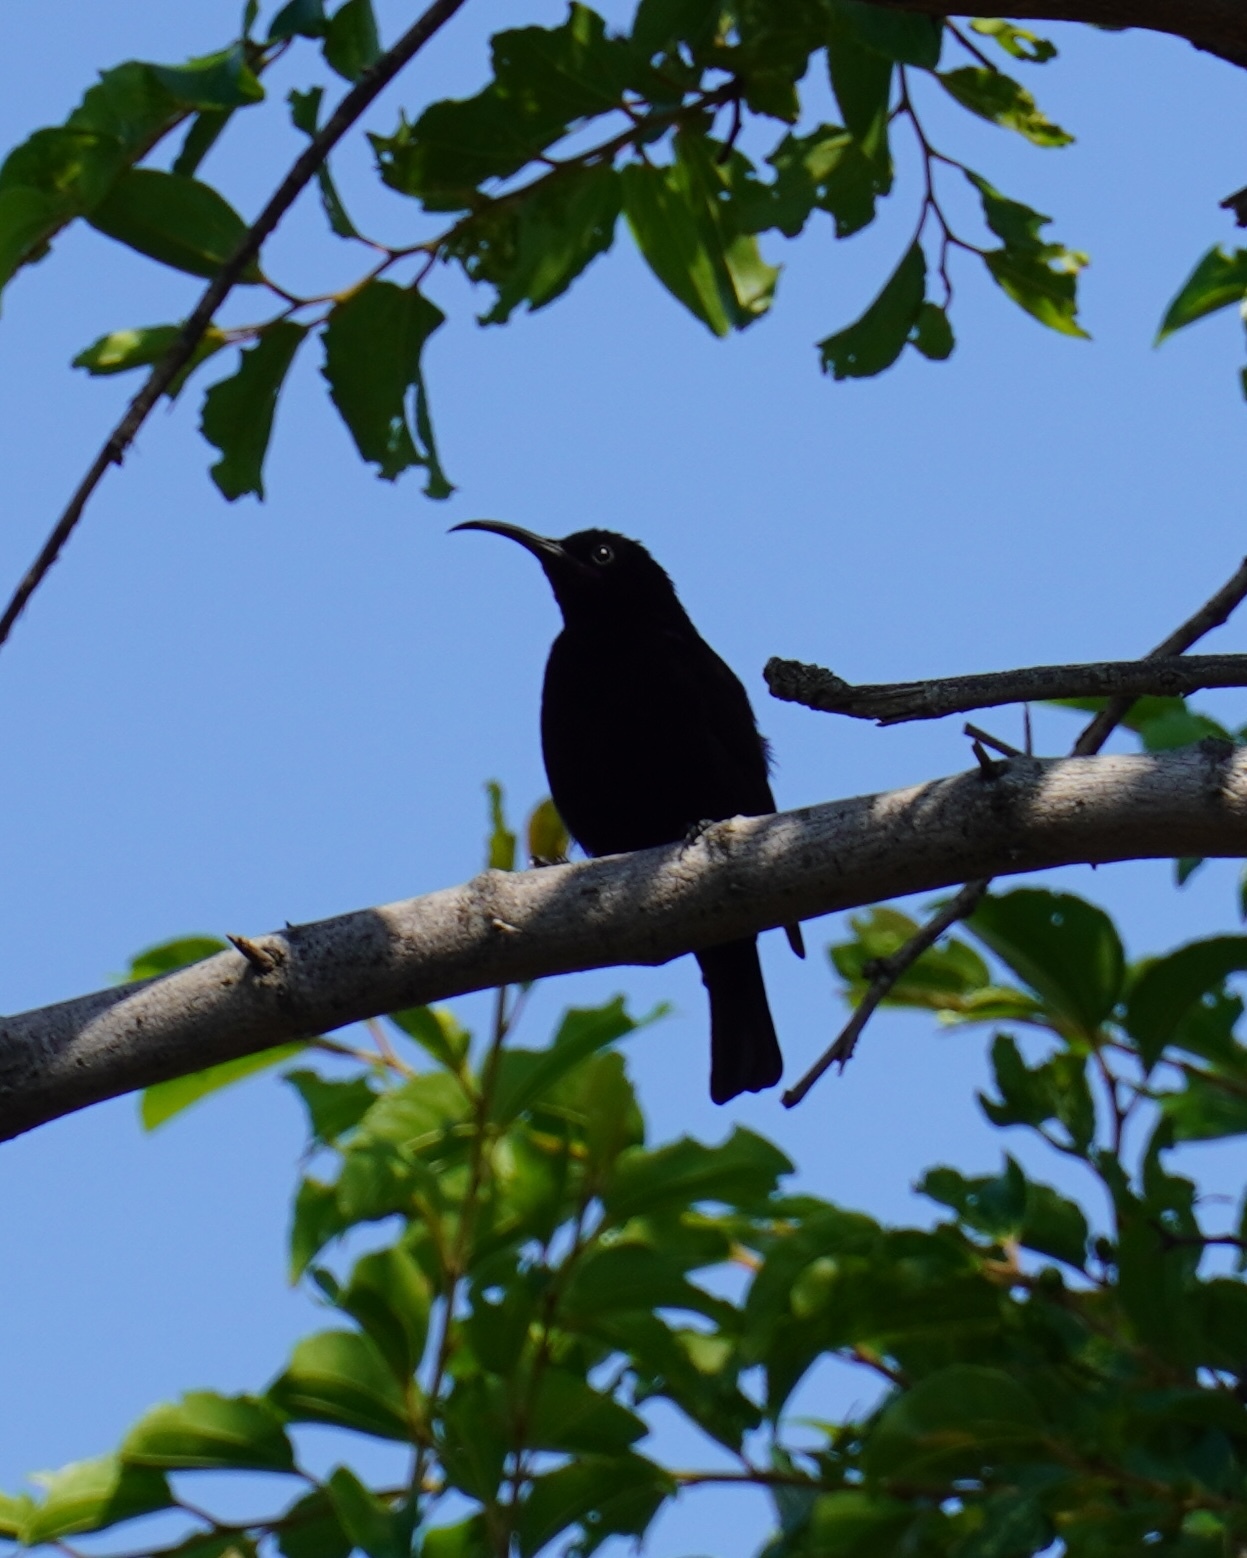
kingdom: Animalia
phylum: Chordata
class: Aves
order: Passeriformes
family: Nectariniidae
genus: Chalcomitra
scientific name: Chalcomitra amethystina
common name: Amethyst sunbird
